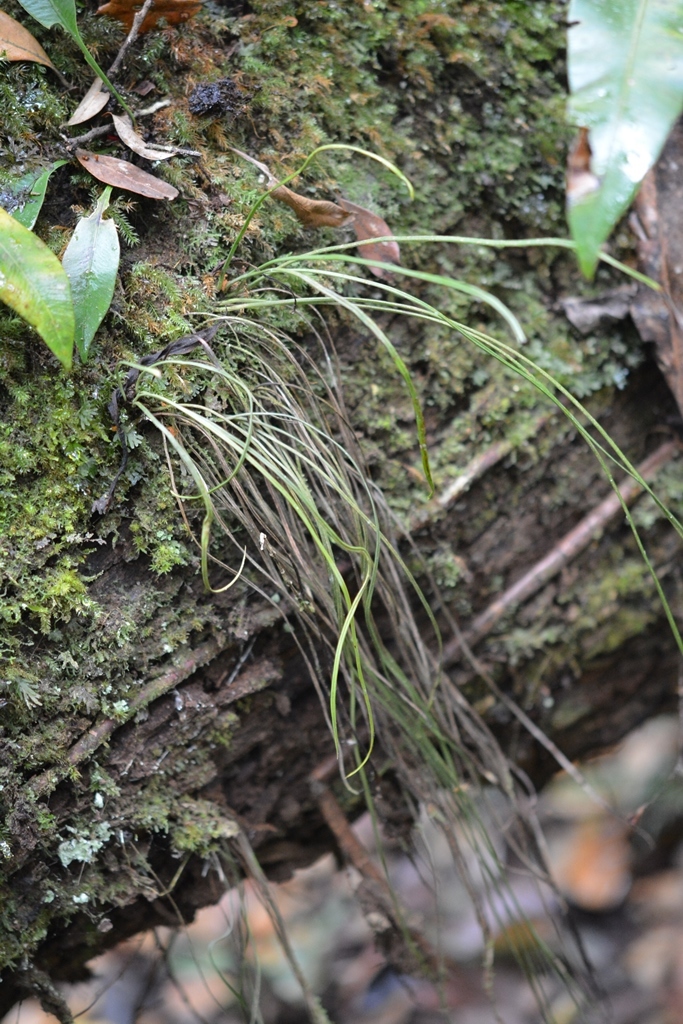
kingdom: Plantae
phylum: Tracheophyta
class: Polypodiopsida
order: Polypodiales
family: Pteridaceae
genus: Vittaria
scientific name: Vittaria lineata
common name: Shoestring fern
